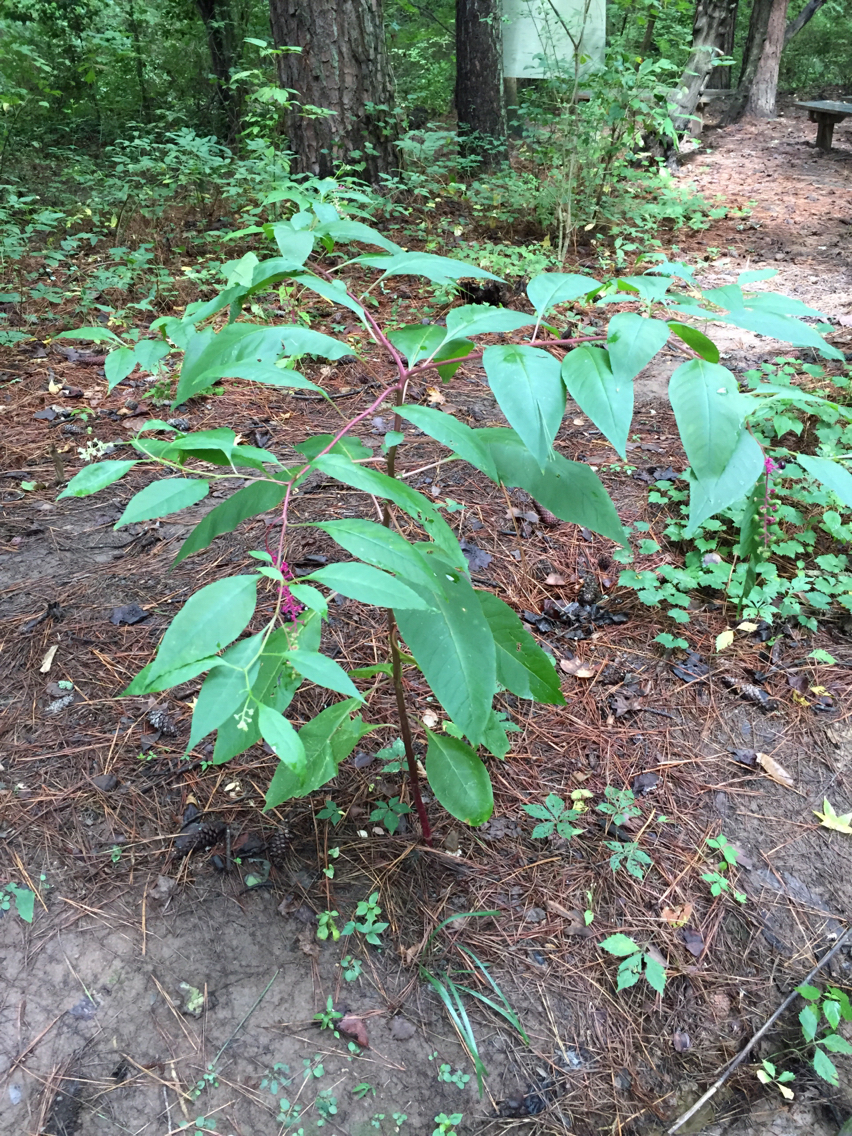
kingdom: Plantae
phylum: Tracheophyta
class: Magnoliopsida
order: Caryophyllales
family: Phytolaccaceae
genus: Phytolacca
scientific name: Phytolacca americana
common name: American pokeweed
